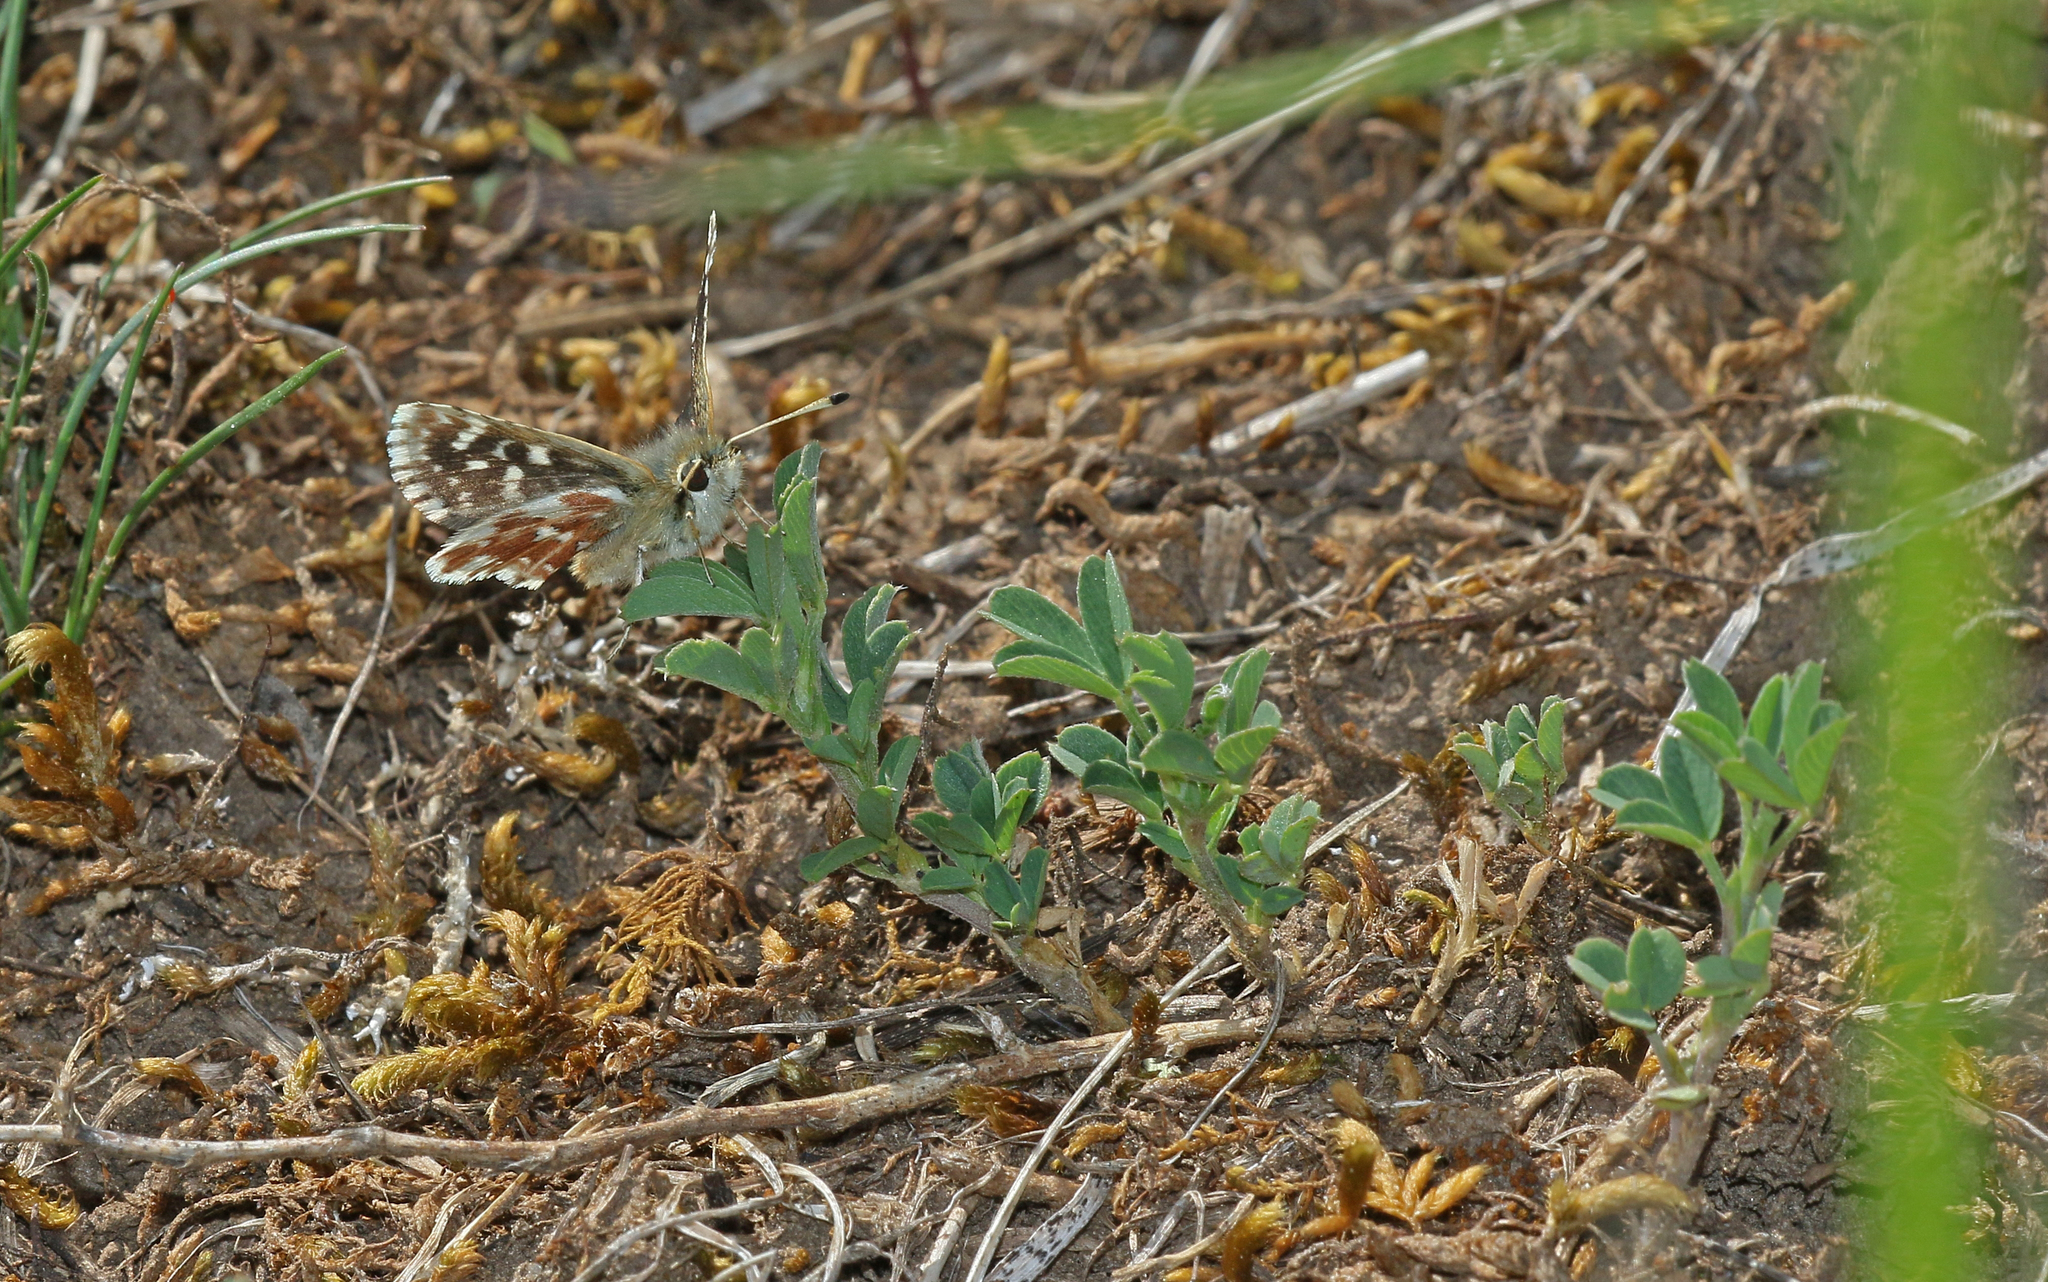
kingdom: Animalia
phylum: Arthropoda
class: Insecta
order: Lepidoptera
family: Hesperiidae
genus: Spialia
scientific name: Spialia sertorius
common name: Red underwing skipper
